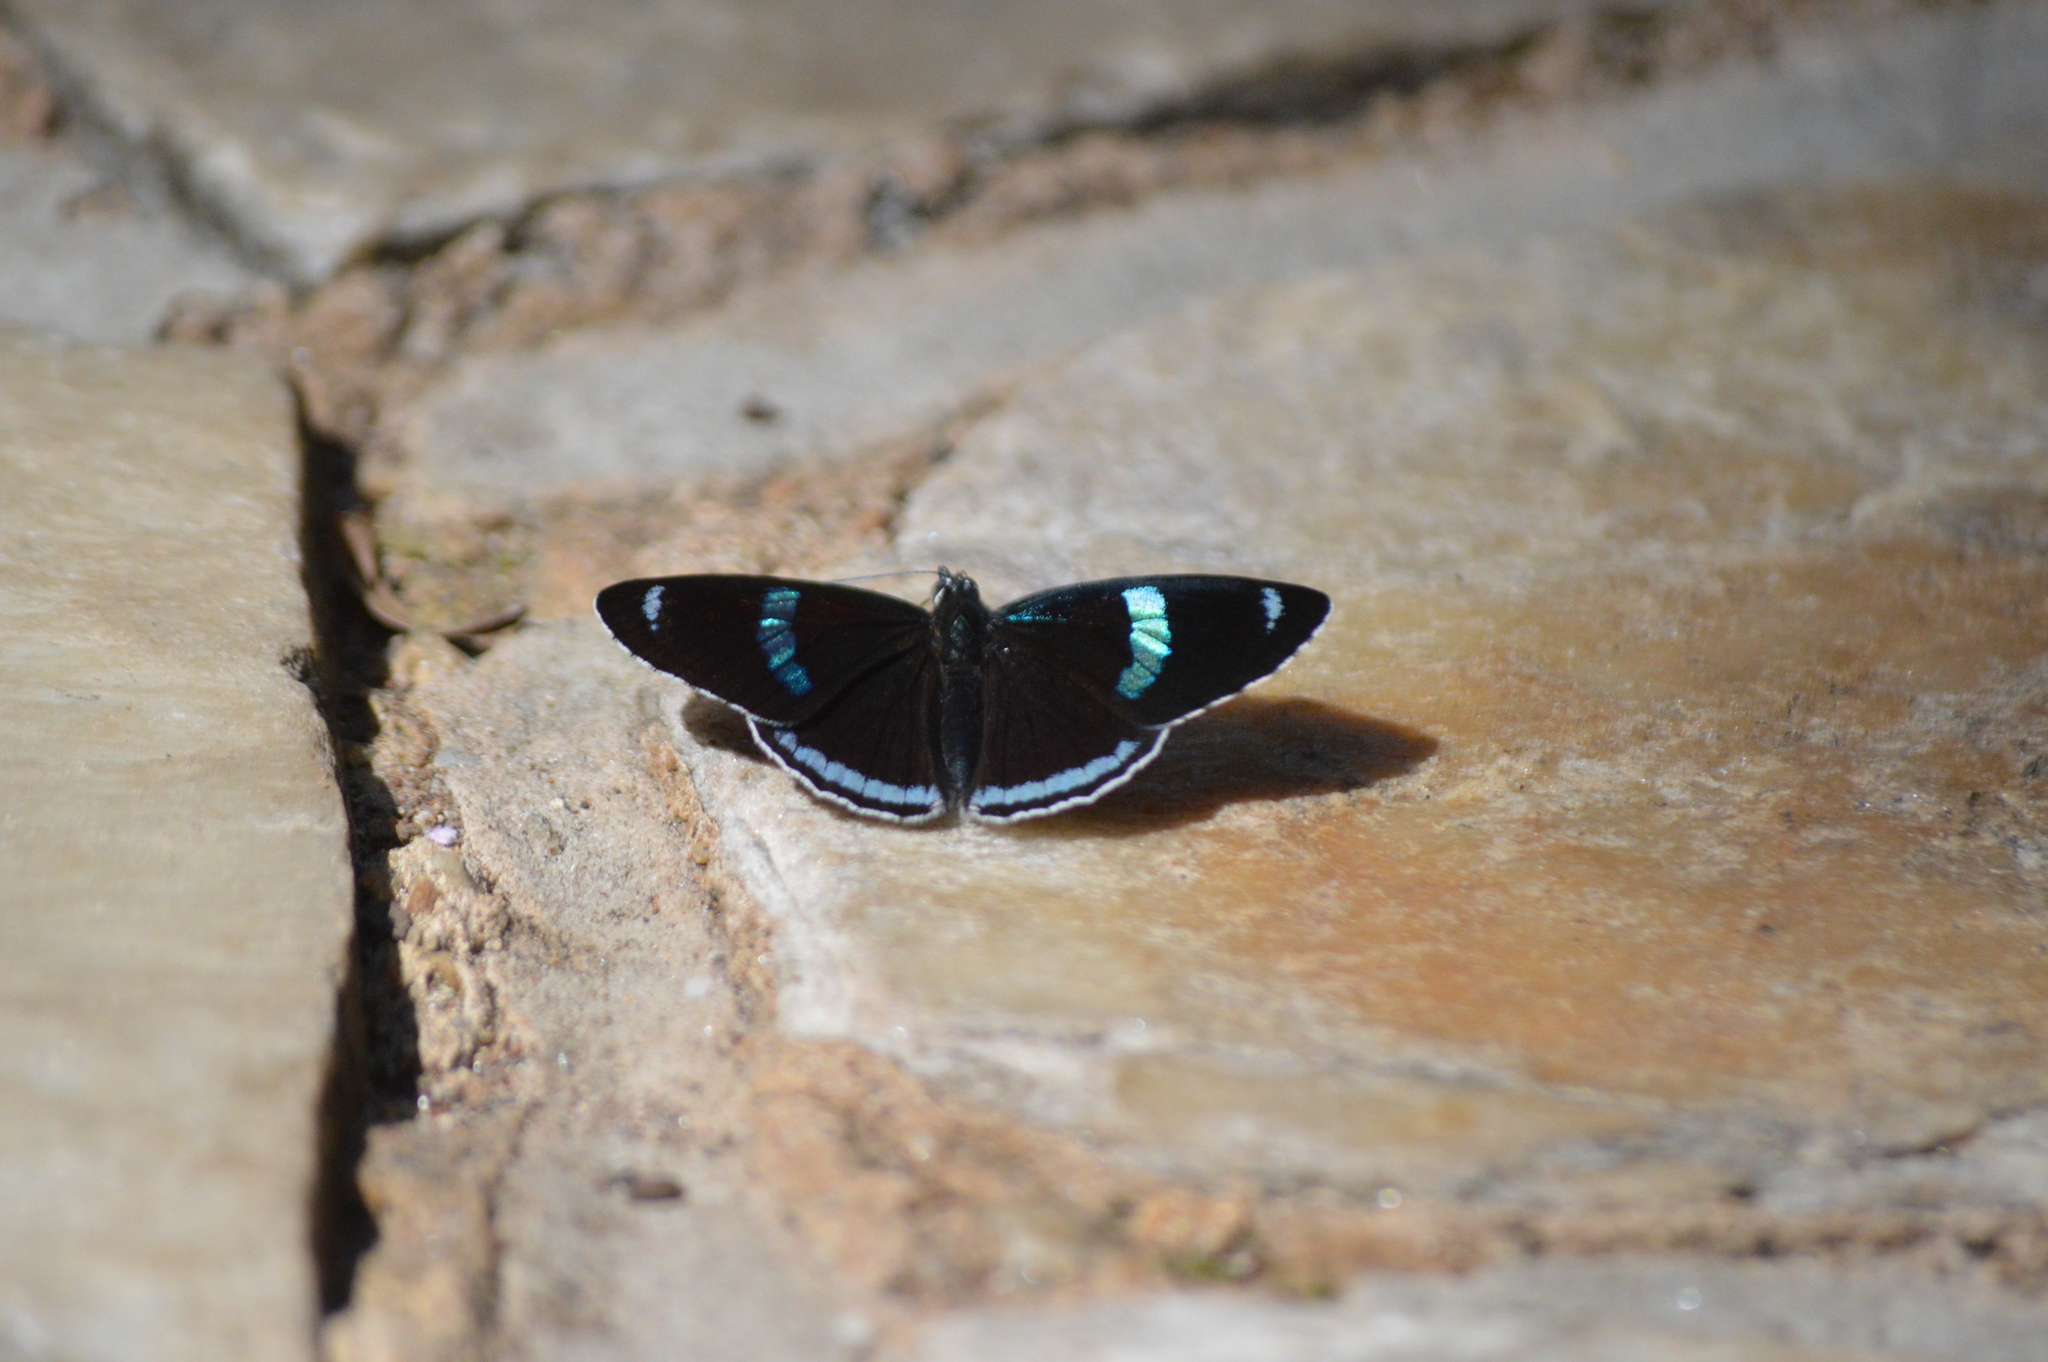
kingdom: Animalia
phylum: Arthropoda
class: Insecta
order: Lepidoptera
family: Nymphalidae
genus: Diaethria
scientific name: Diaethria clymena
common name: Widespread eighty-eight
